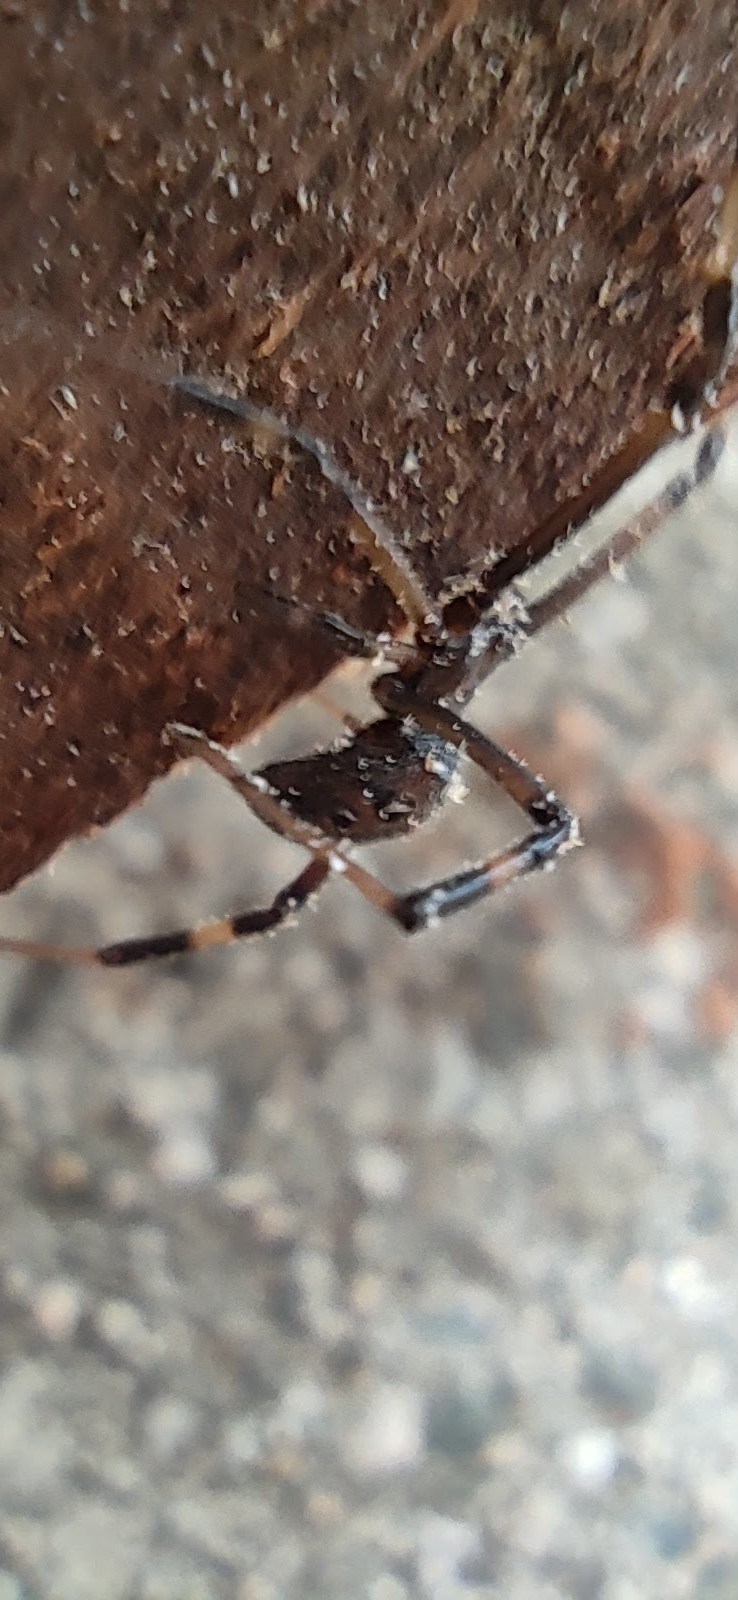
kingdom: Animalia
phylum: Arthropoda
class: Arachnida
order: Araneae
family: Theridiidae
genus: Latrodectus
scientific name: Latrodectus geometricus
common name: Brown widow spider
